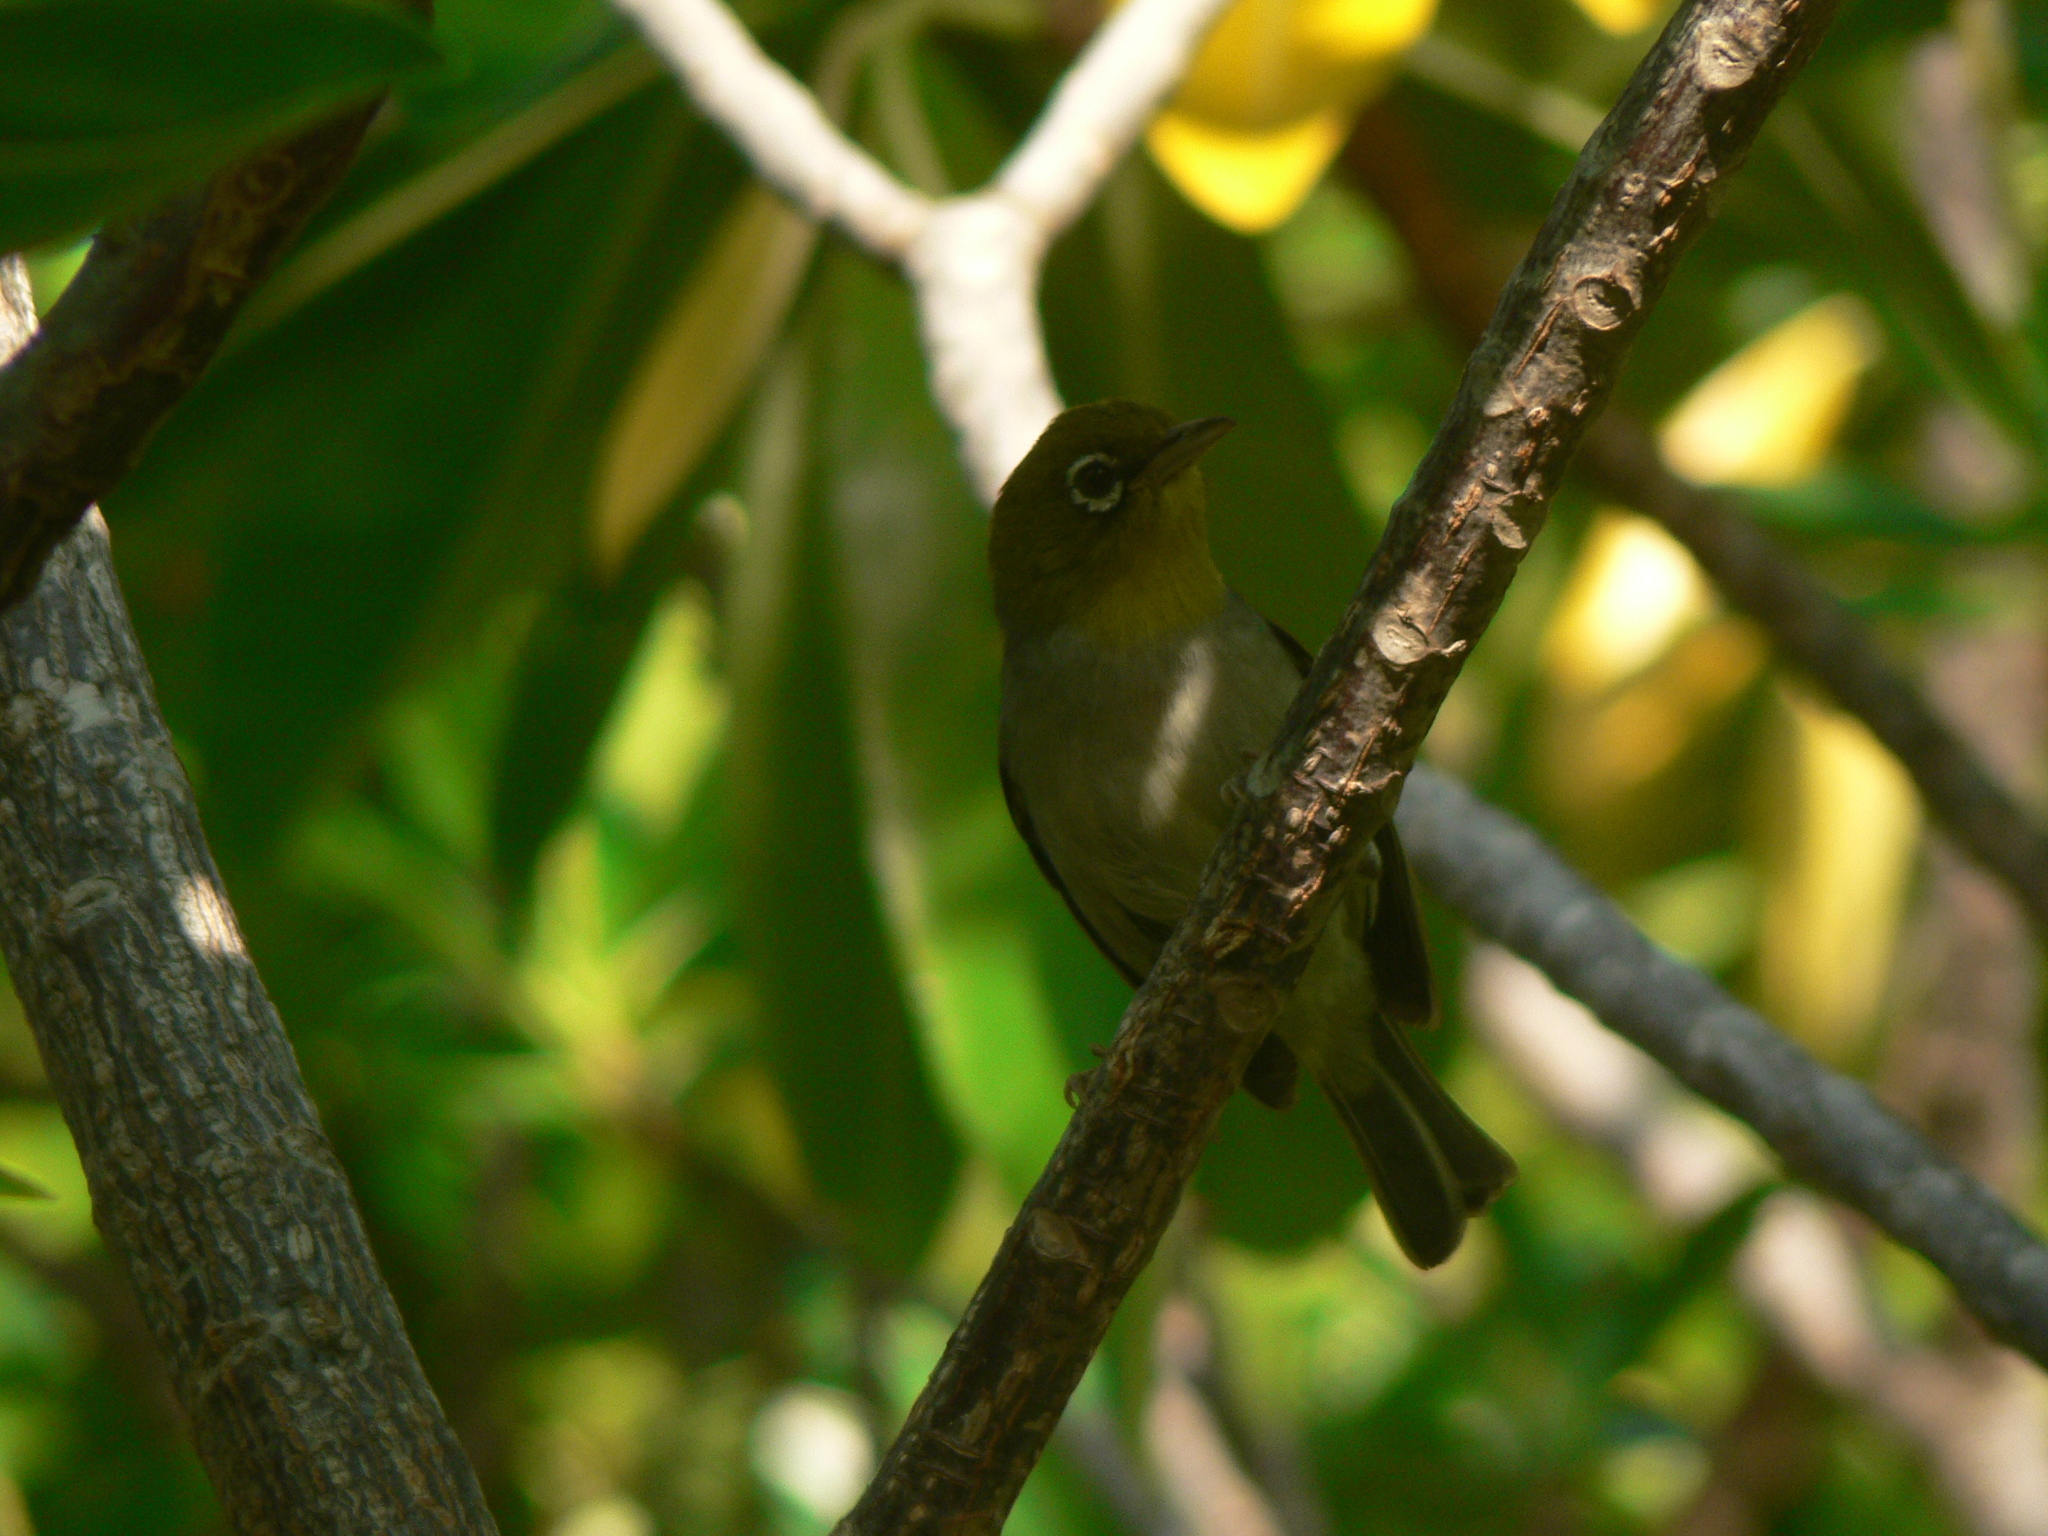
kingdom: Animalia
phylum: Chordata
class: Aves
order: Passeriformes
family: Zosteropidae
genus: Zosterops
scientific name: Zosterops lateralis
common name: Silvereye
